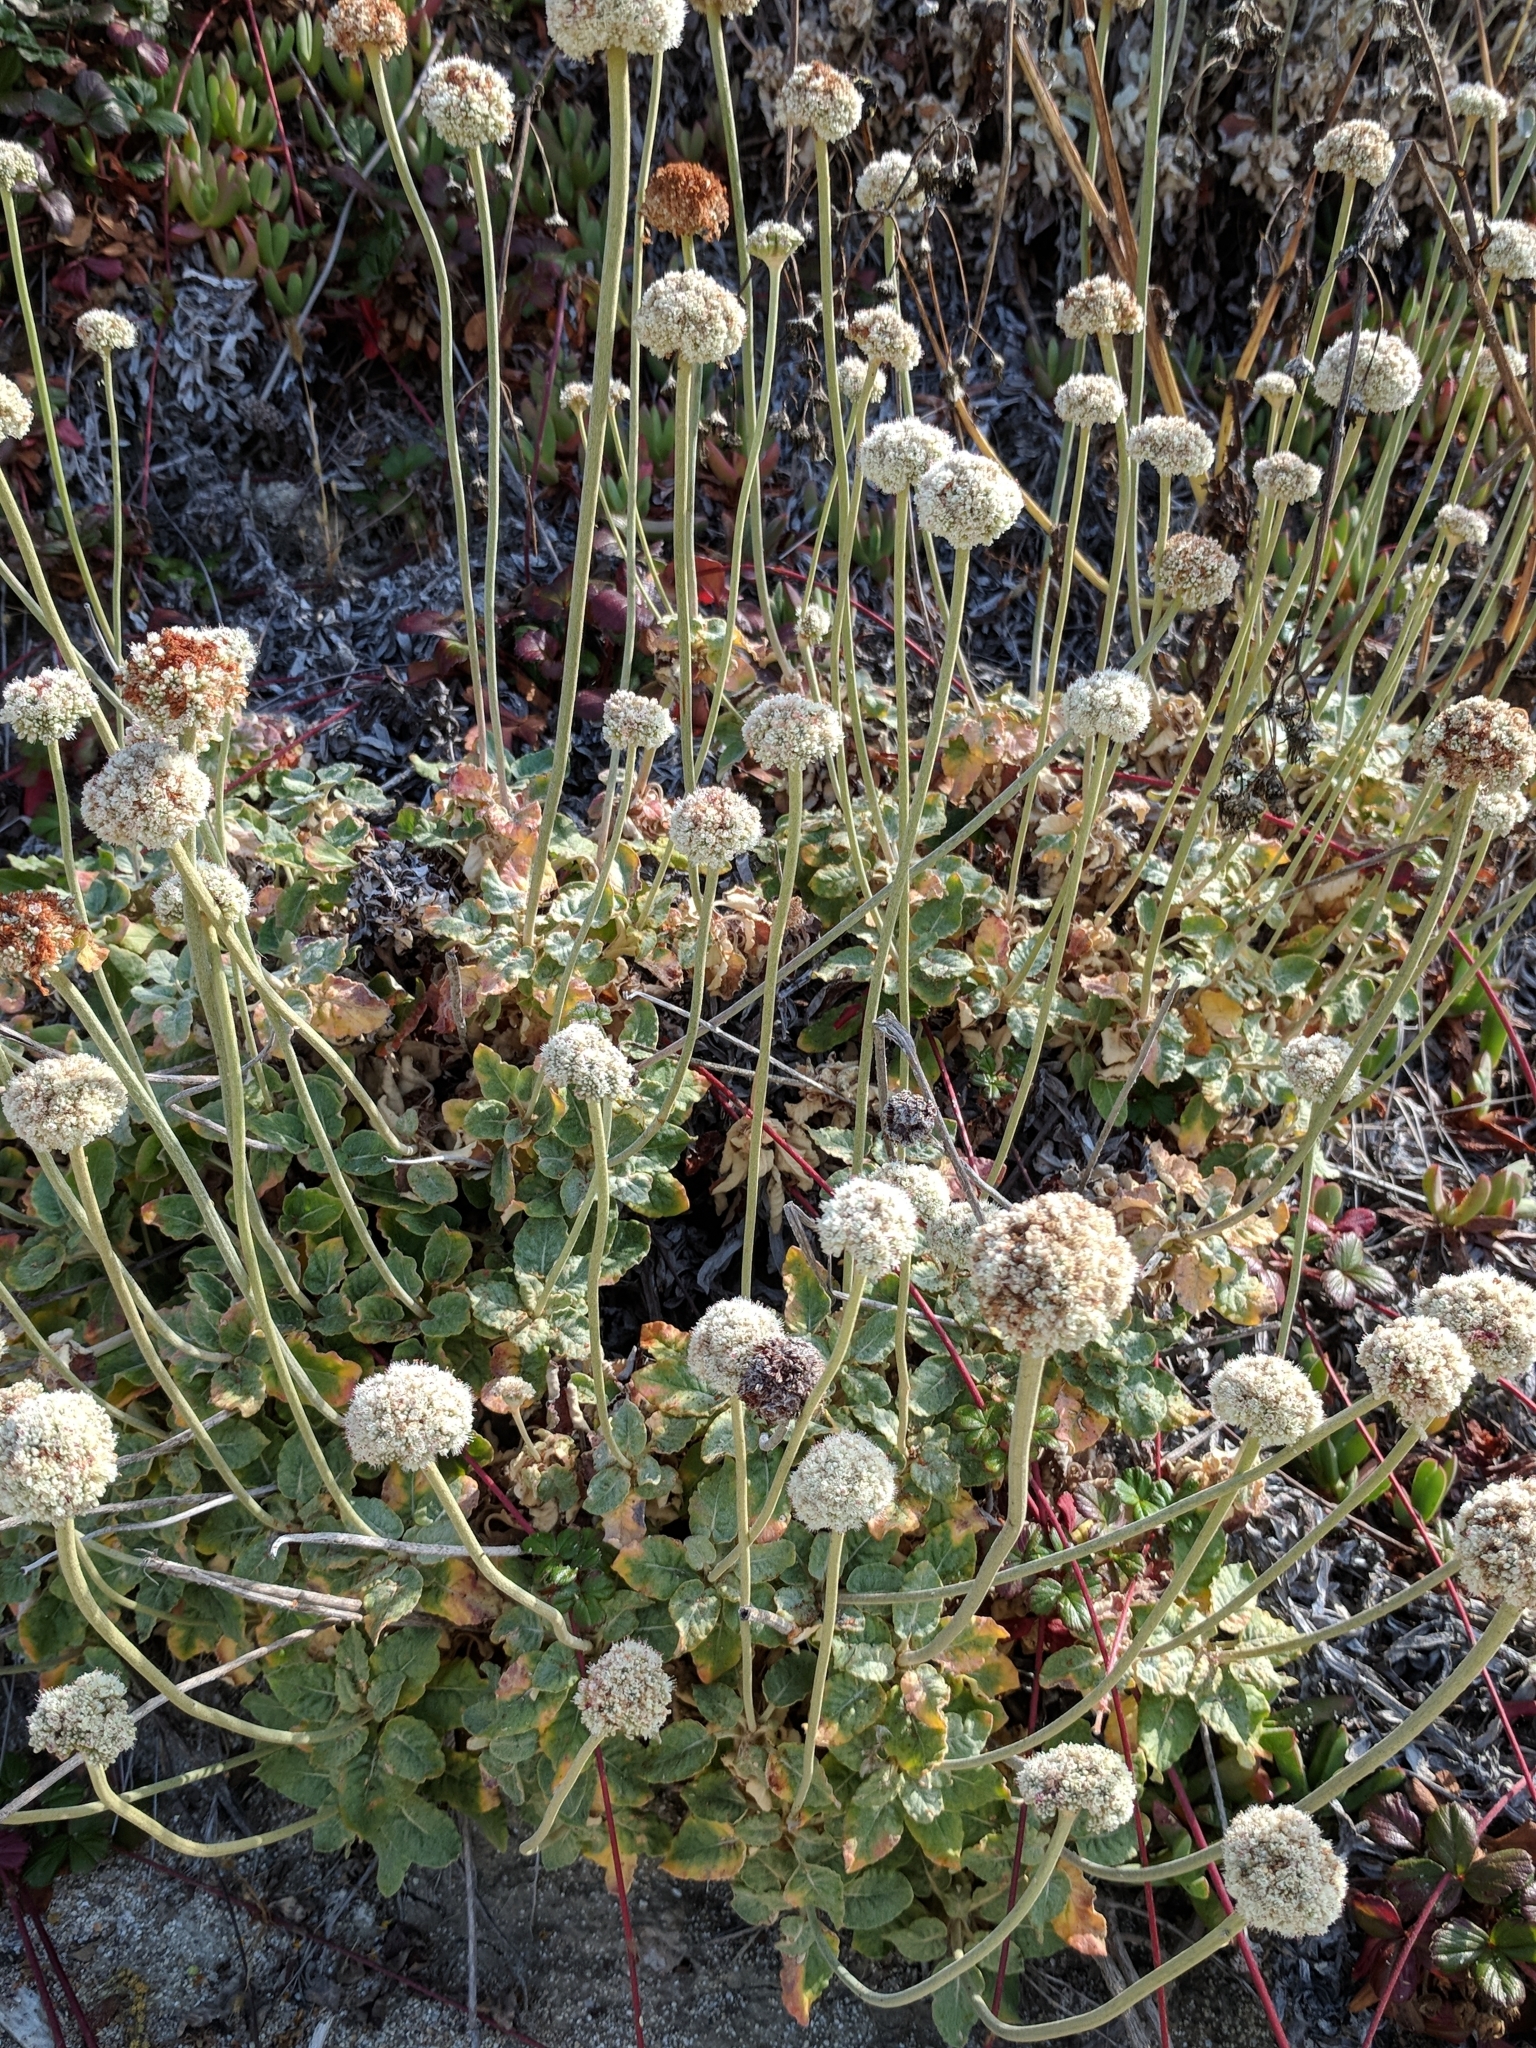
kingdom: Plantae
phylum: Tracheophyta
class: Magnoliopsida
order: Caryophyllales
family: Polygonaceae
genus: Eriogonum
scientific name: Eriogonum latifolium
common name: Seaside wild buckwheat
